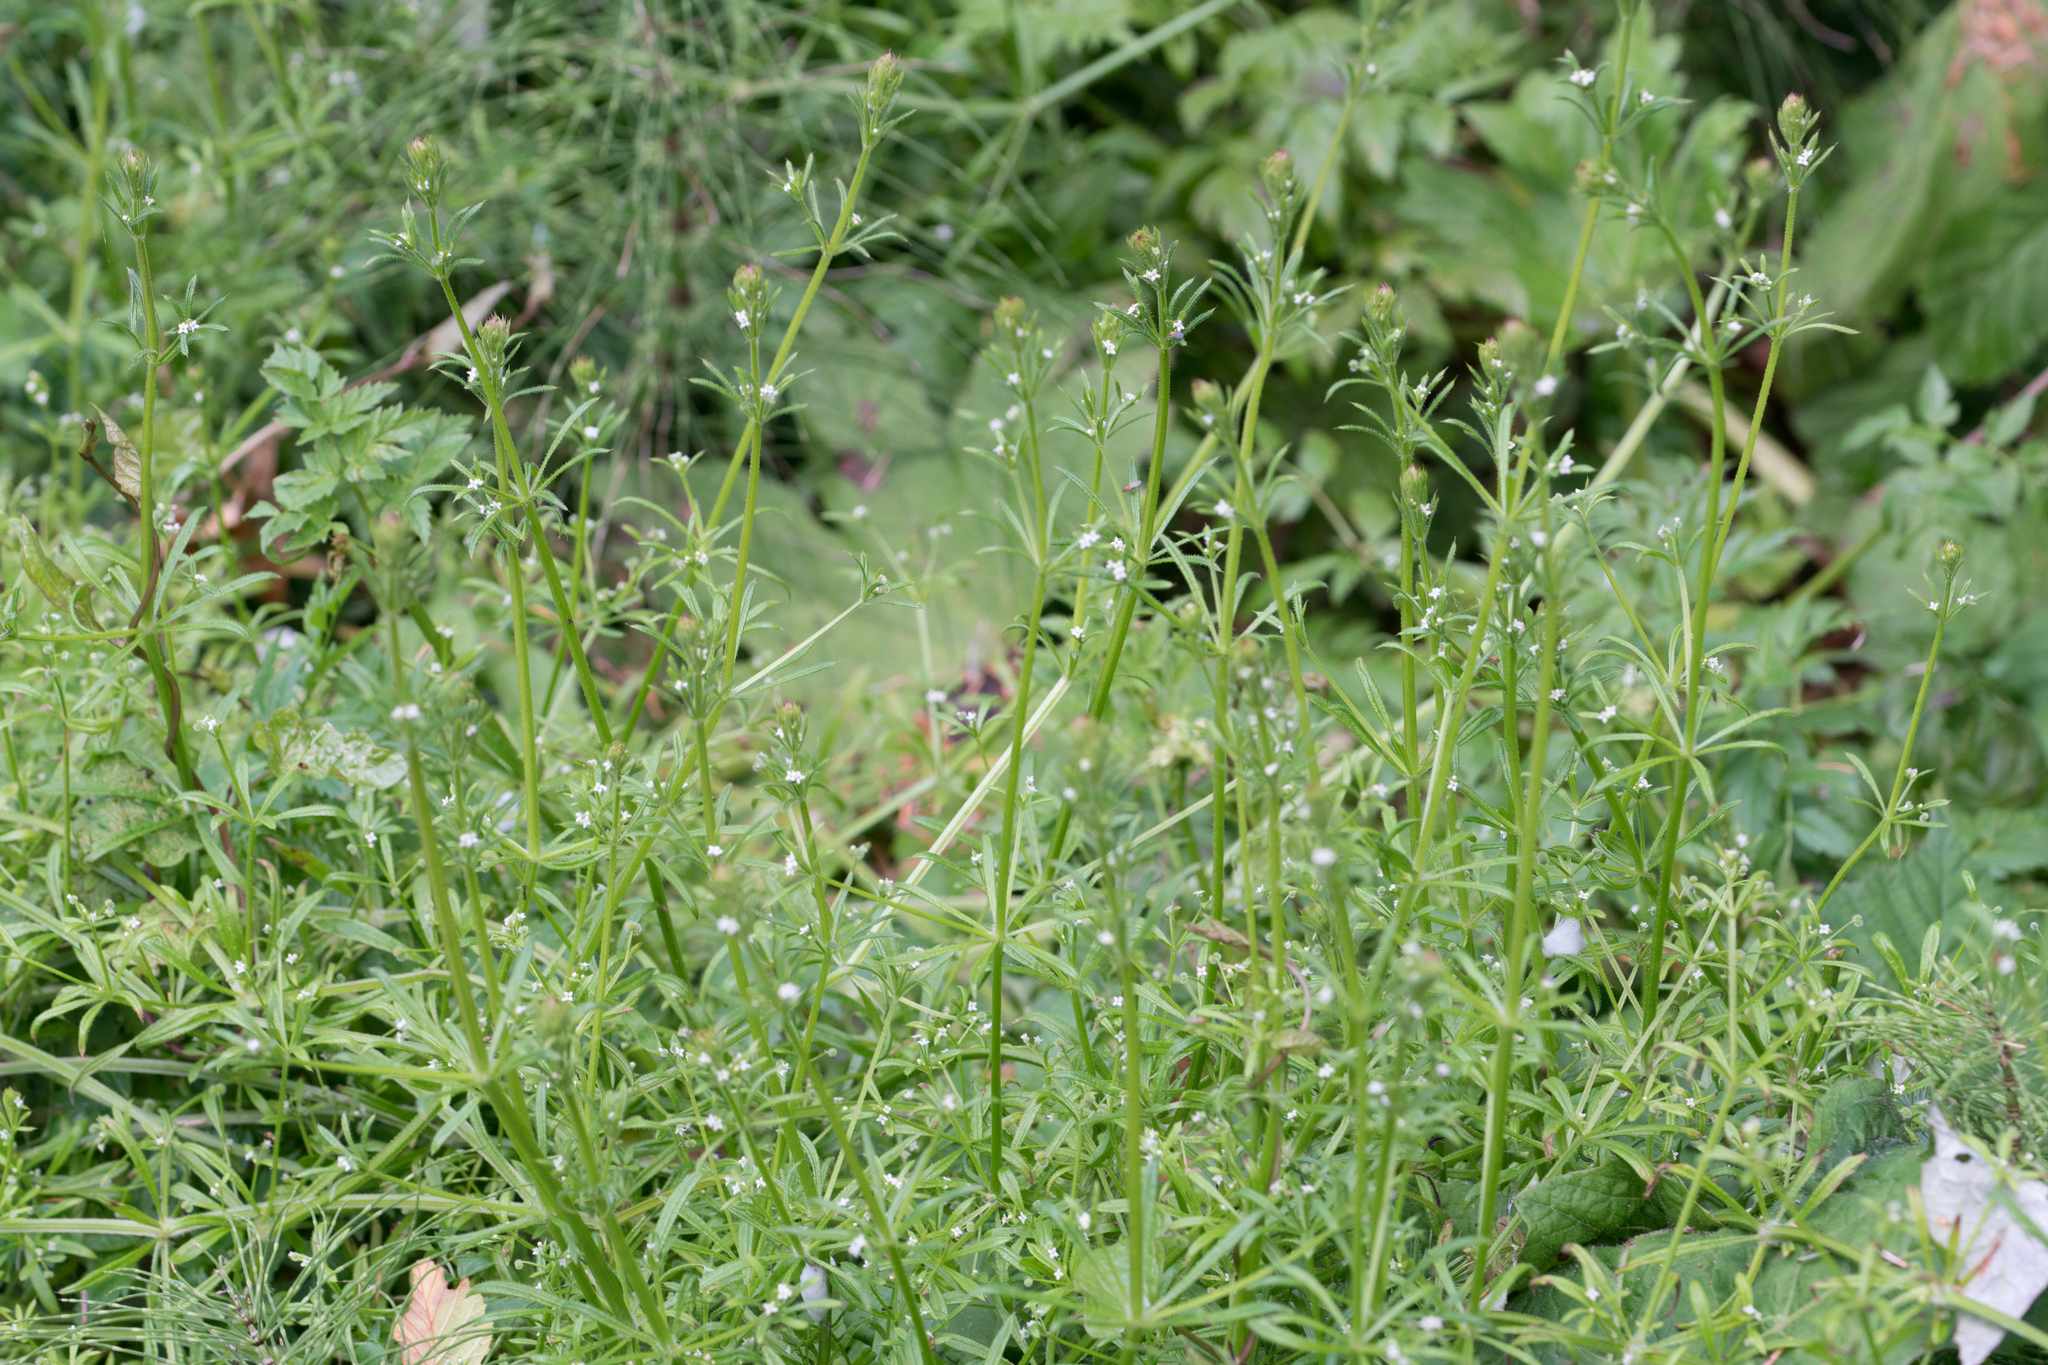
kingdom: Plantae
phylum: Tracheophyta
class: Magnoliopsida
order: Gentianales
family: Rubiaceae
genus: Galium
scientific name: Galium aparine
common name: Cleavers
